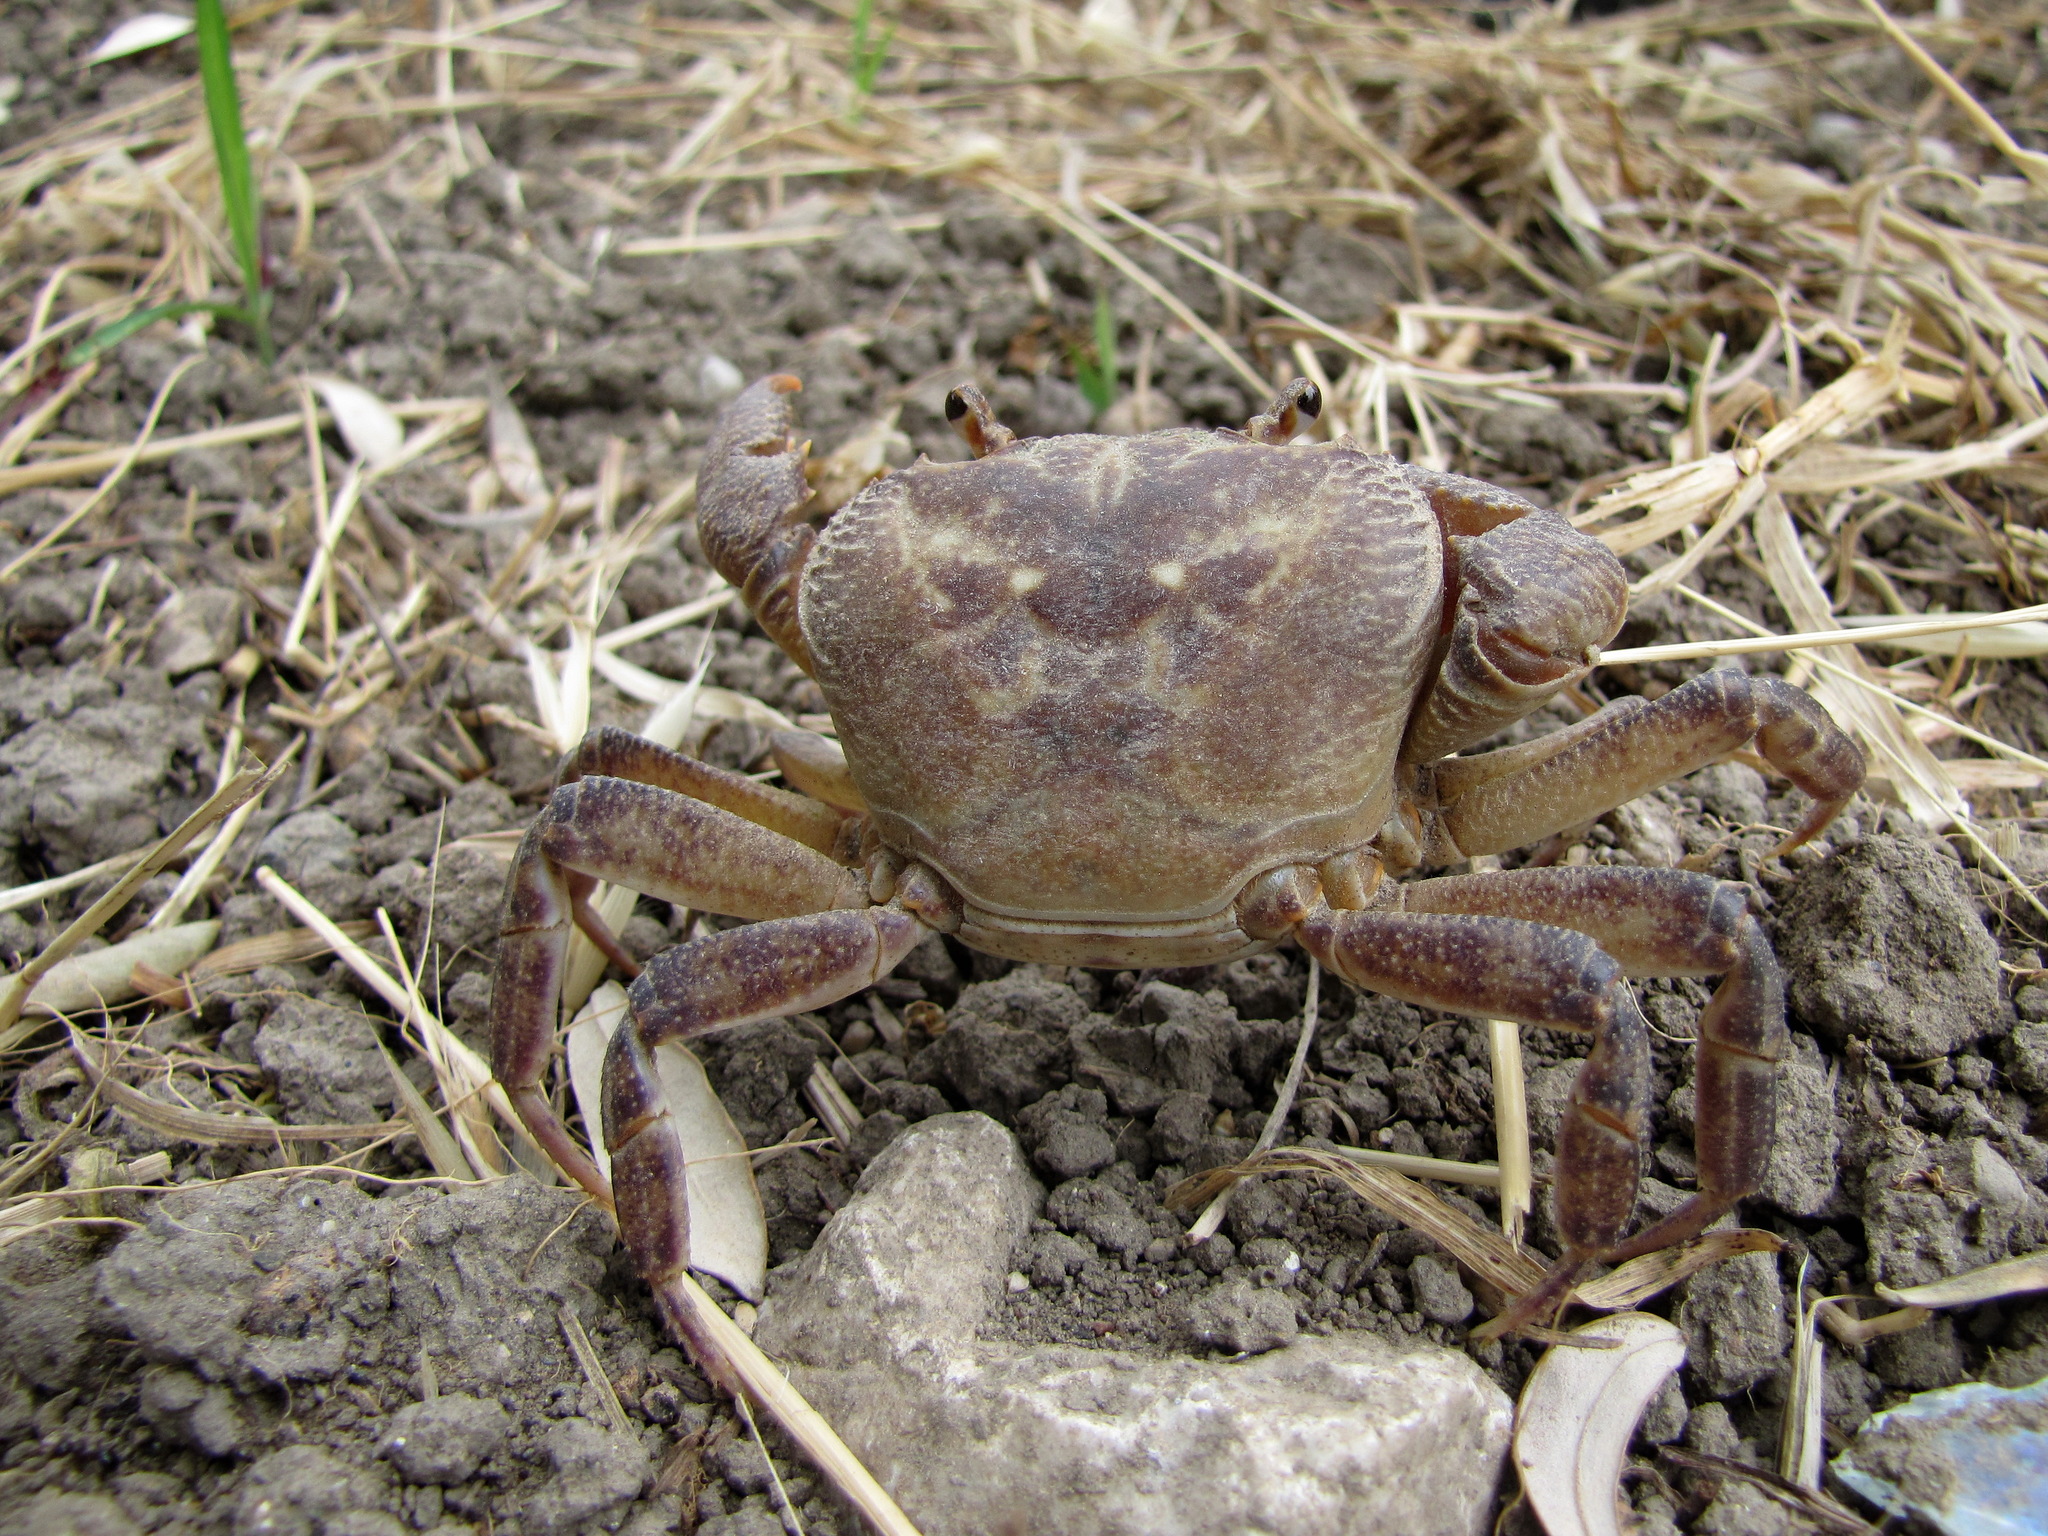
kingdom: Animalia
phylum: Arthropoda
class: Malacostraca
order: Decapoda
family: Potamidae
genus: Potamon
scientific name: Potamon rhodium
